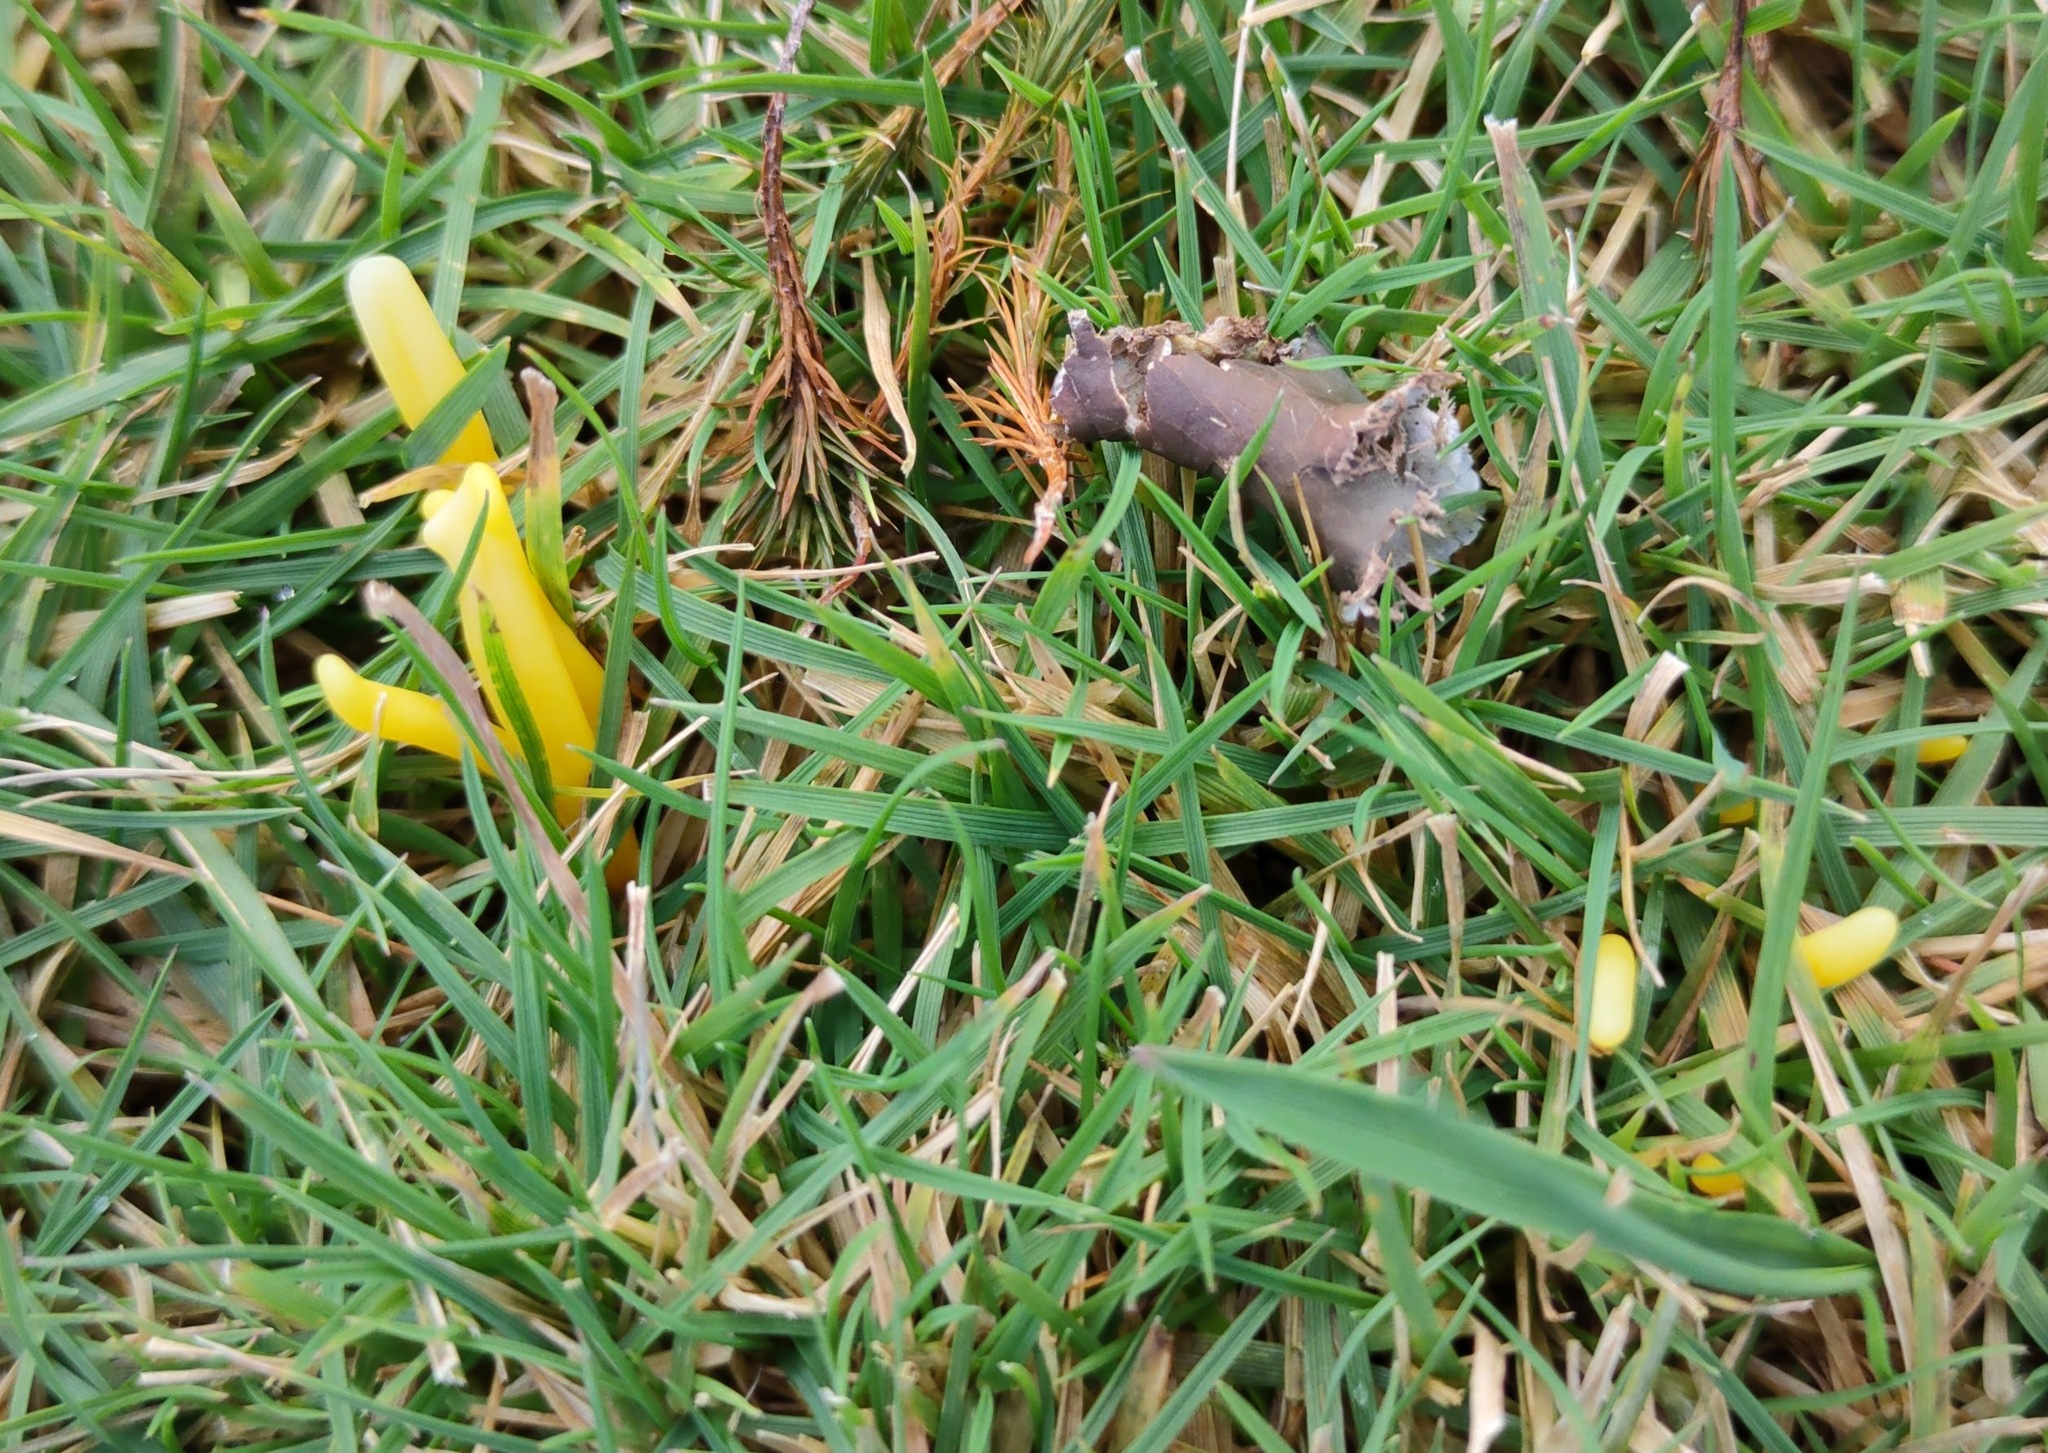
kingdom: Fungi
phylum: Basidiomycota
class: Agaricomycetes
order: Agaricales
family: Clavariaceae
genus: Clavulinopsis
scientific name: Clavulinopsis helvola
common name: Yellow club
